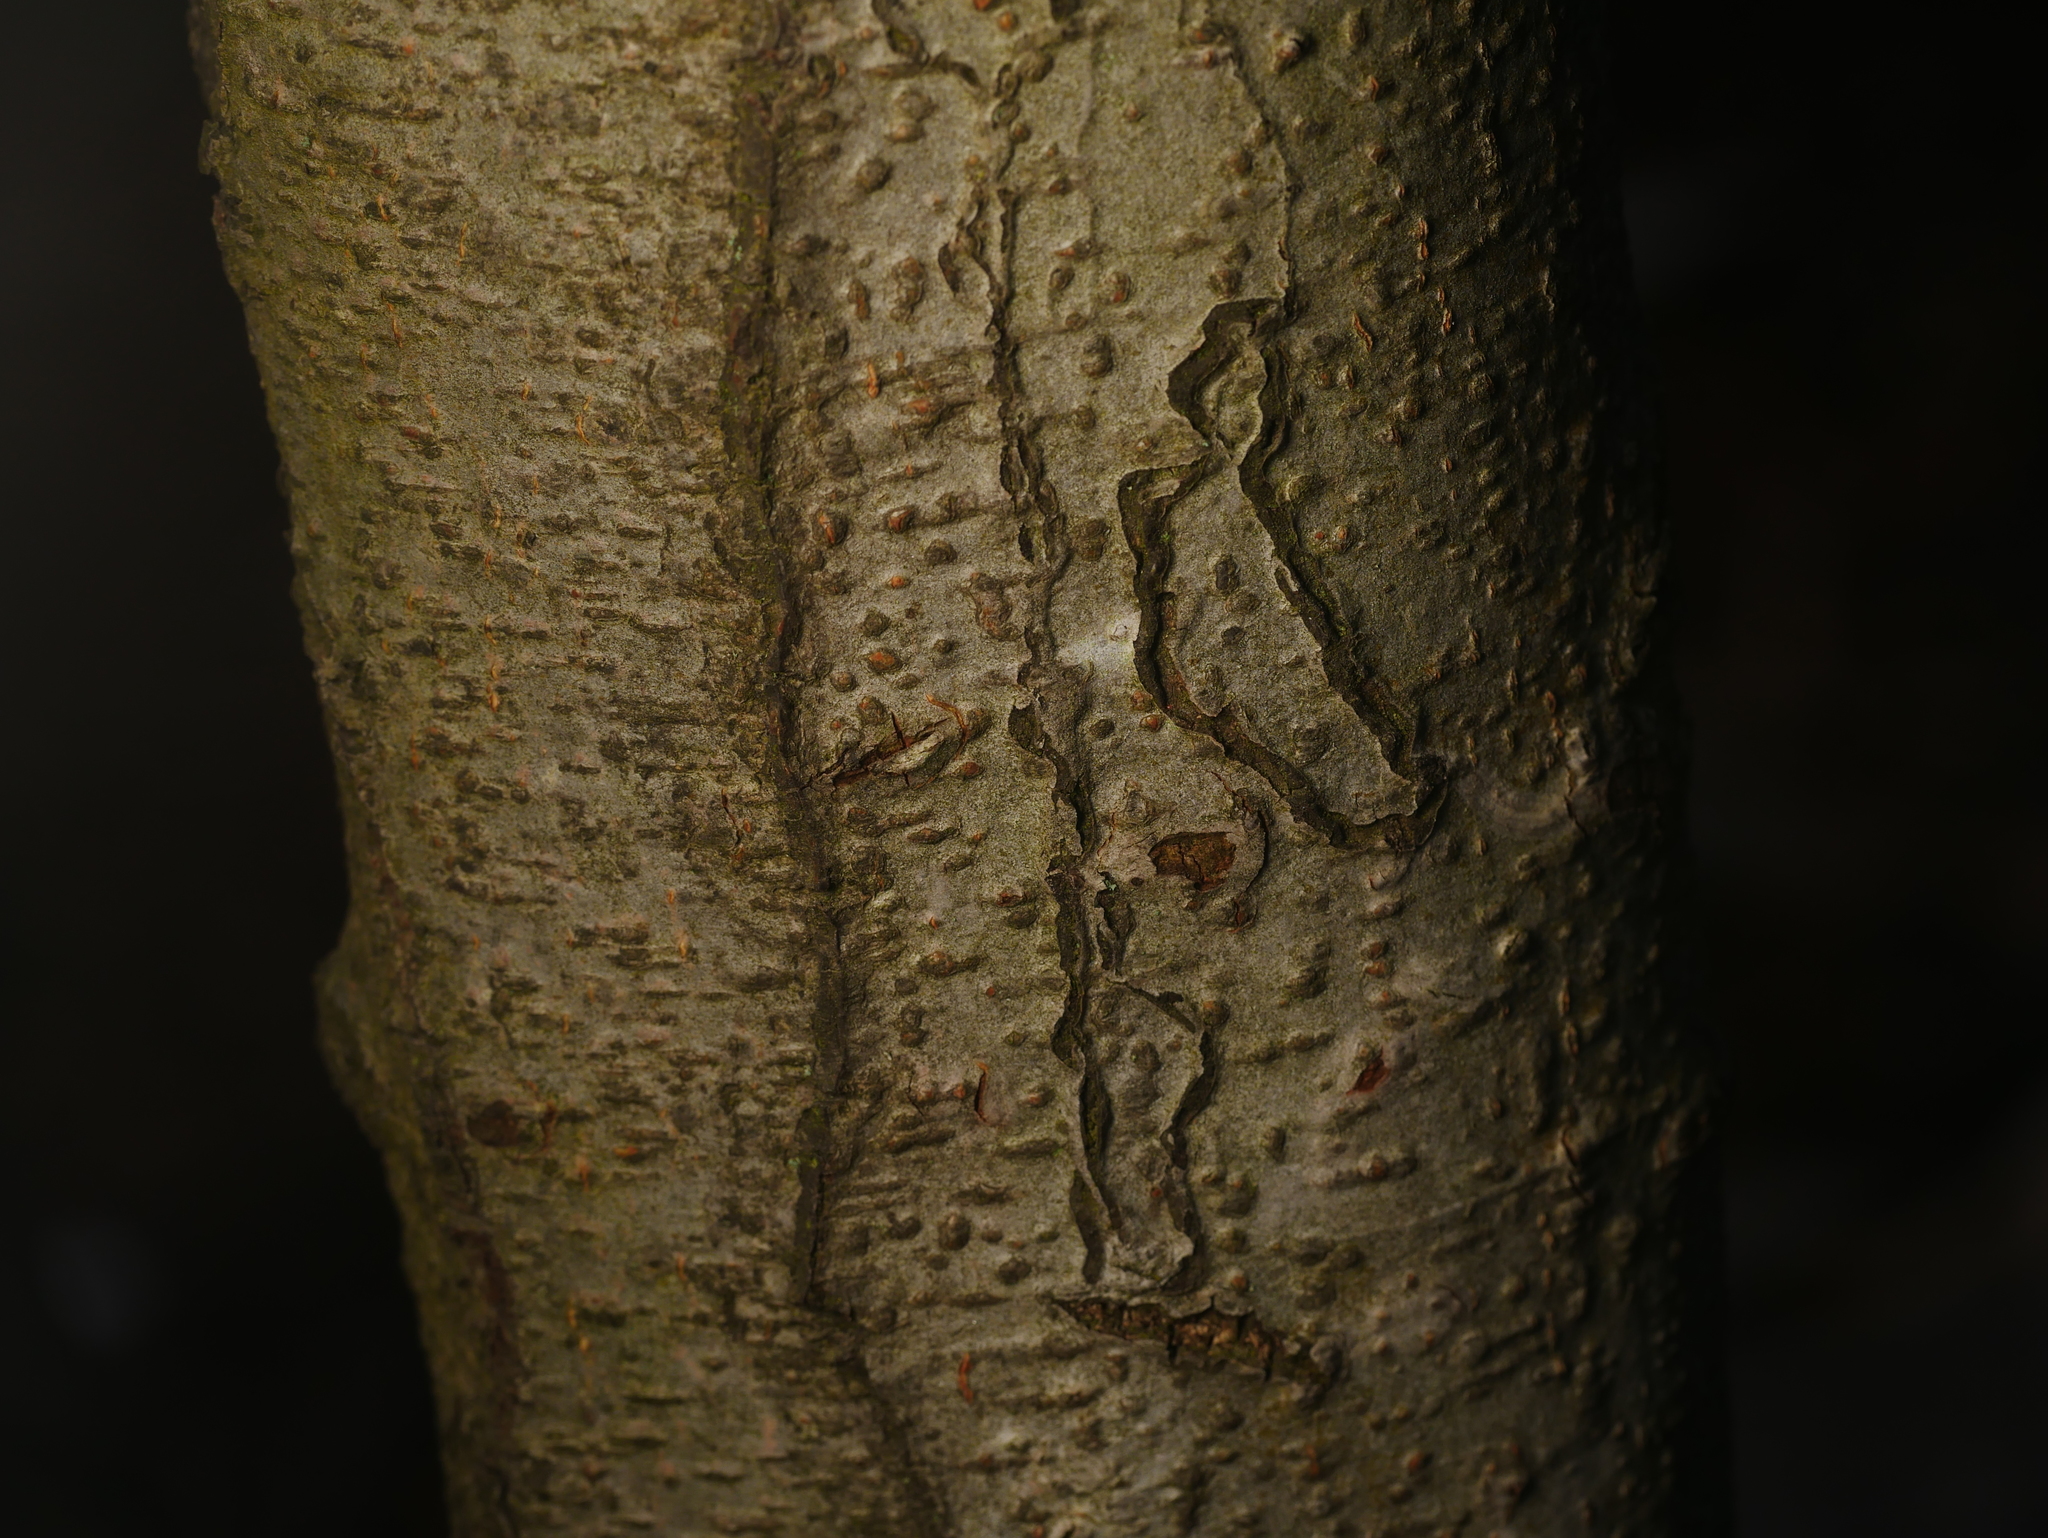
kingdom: Animalia
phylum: Arthropoda
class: Insecta
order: Lepidoptera
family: Nepticulidae
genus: Zimmermannia
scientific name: Zimmermannia liebwerdella
